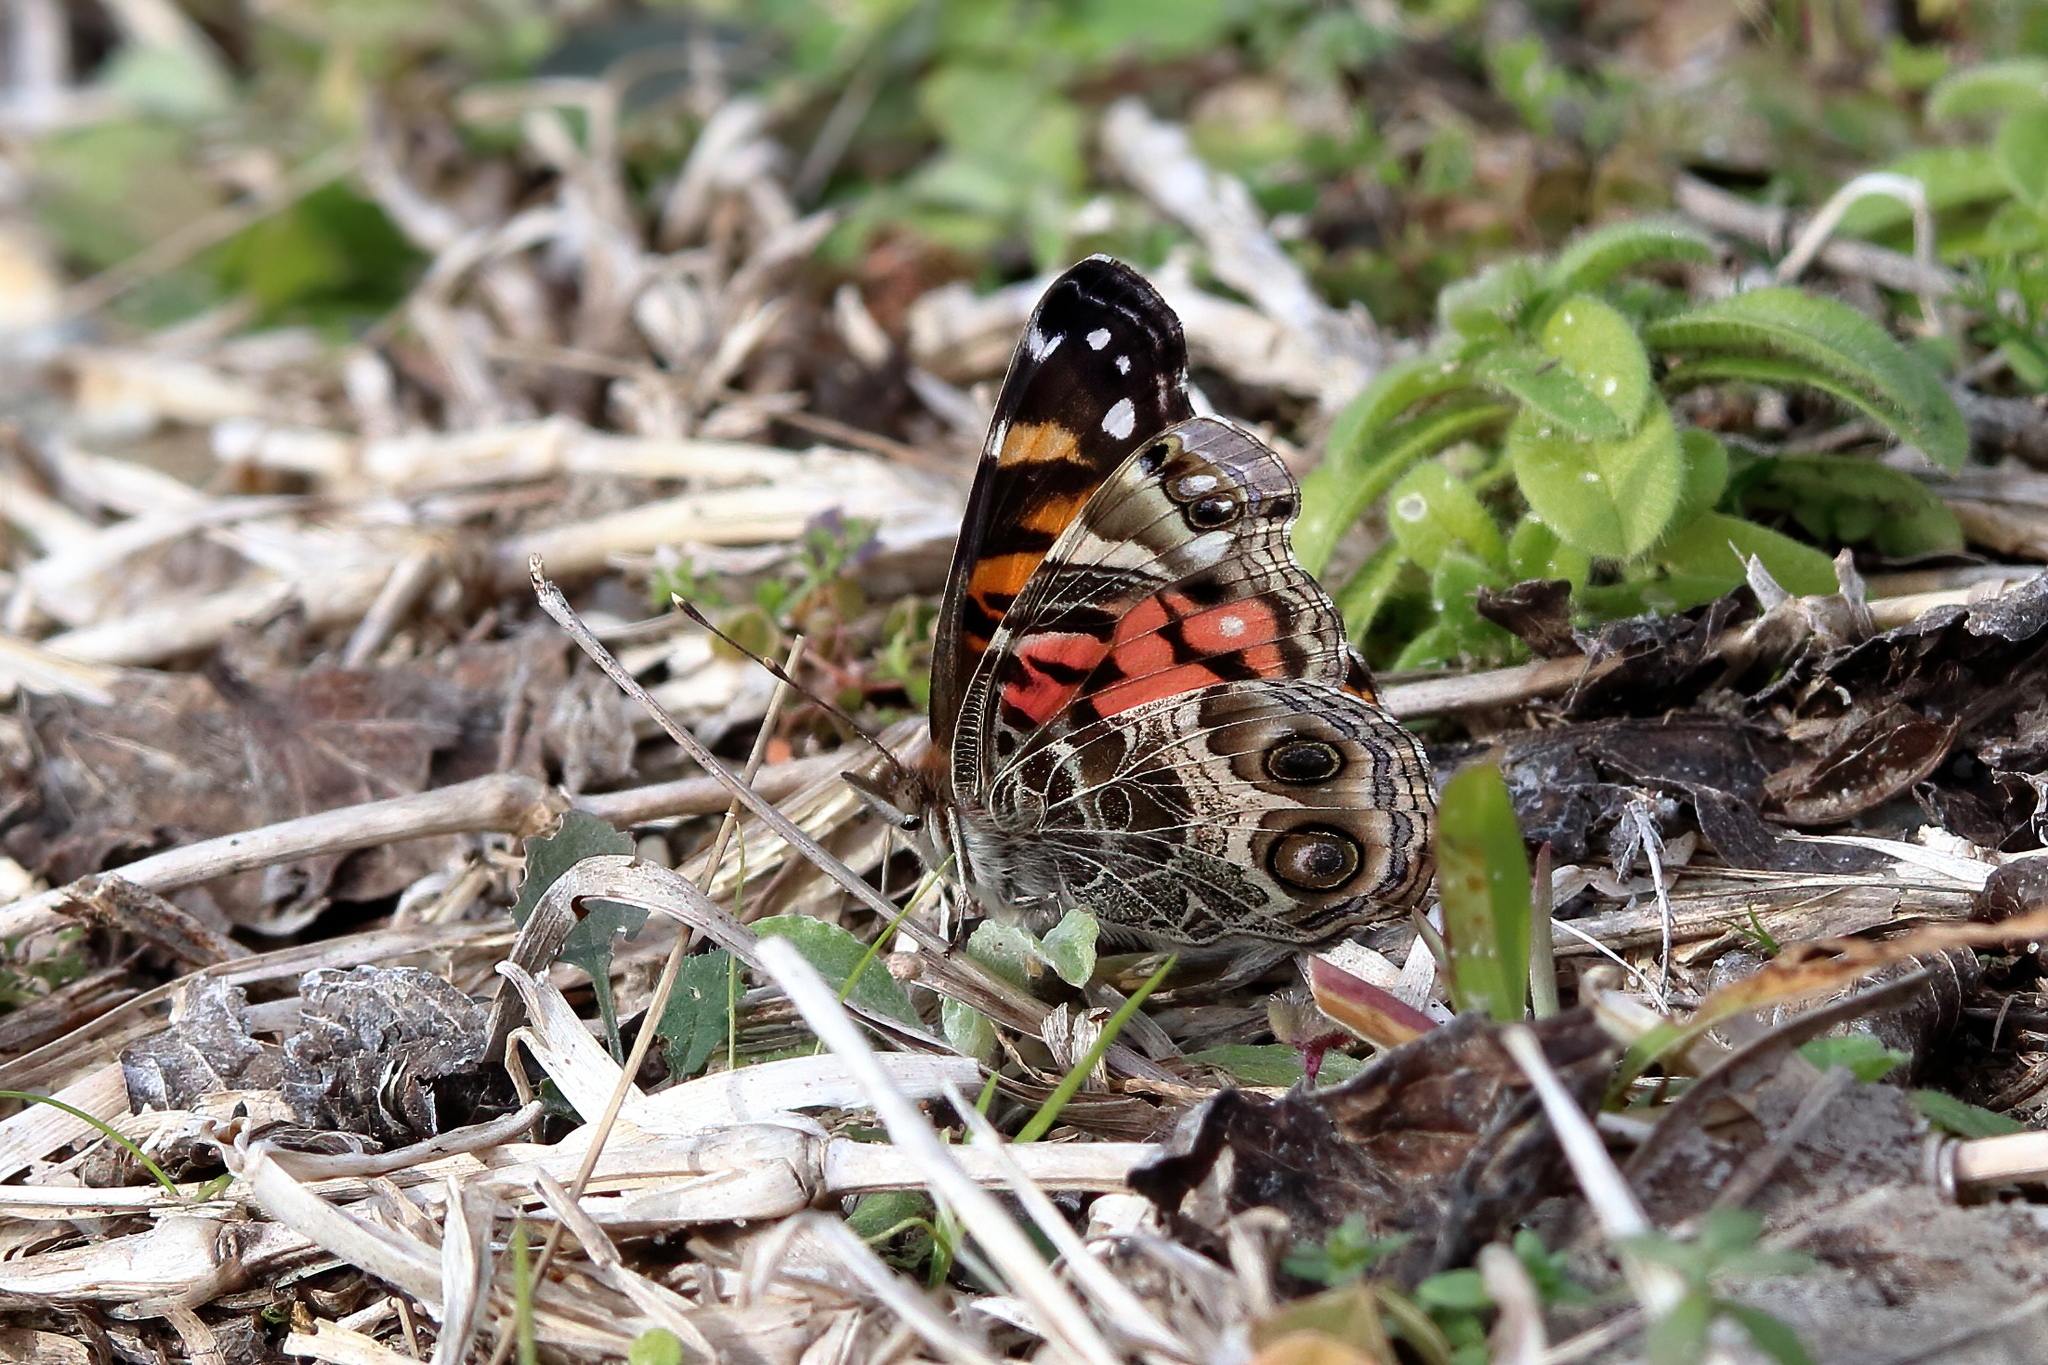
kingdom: Animalia
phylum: Arthropoda
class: Insecta
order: Lepidoptera
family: Nymphalidae
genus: Vanessa
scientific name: Vanessa virginiensis
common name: American lady
